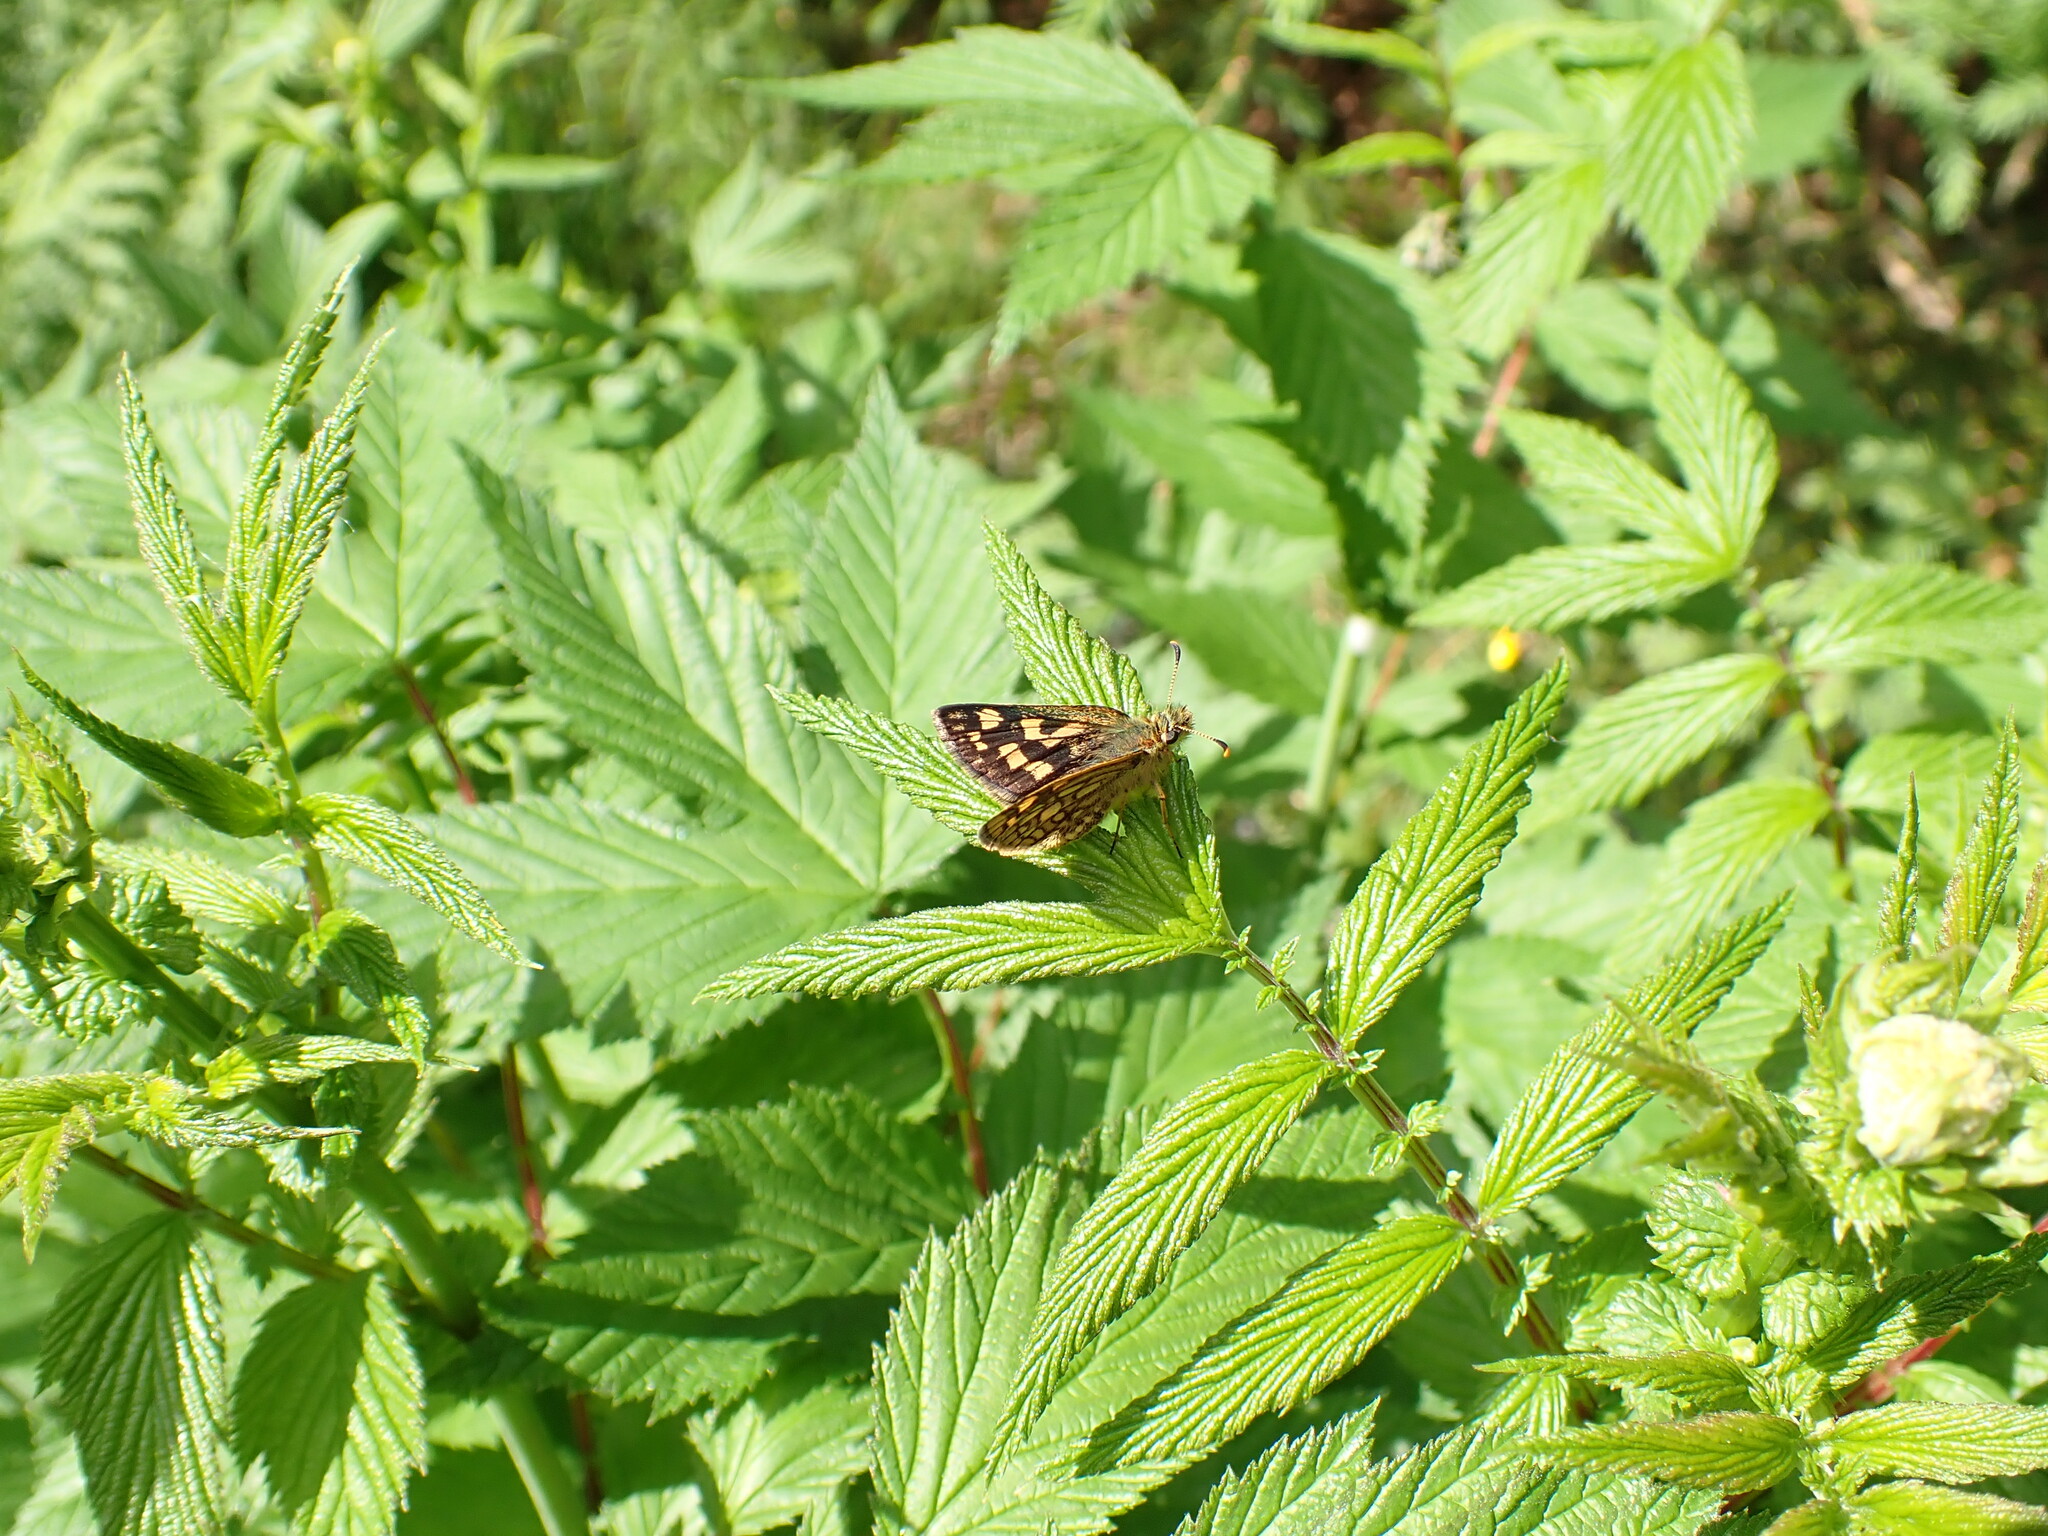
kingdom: Animalia
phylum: Arthropoda
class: Insecta
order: Lepidoptera
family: Hesperiidae
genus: Carterocephalus
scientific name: Carterocephalus palaemon
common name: Chequered skipper
